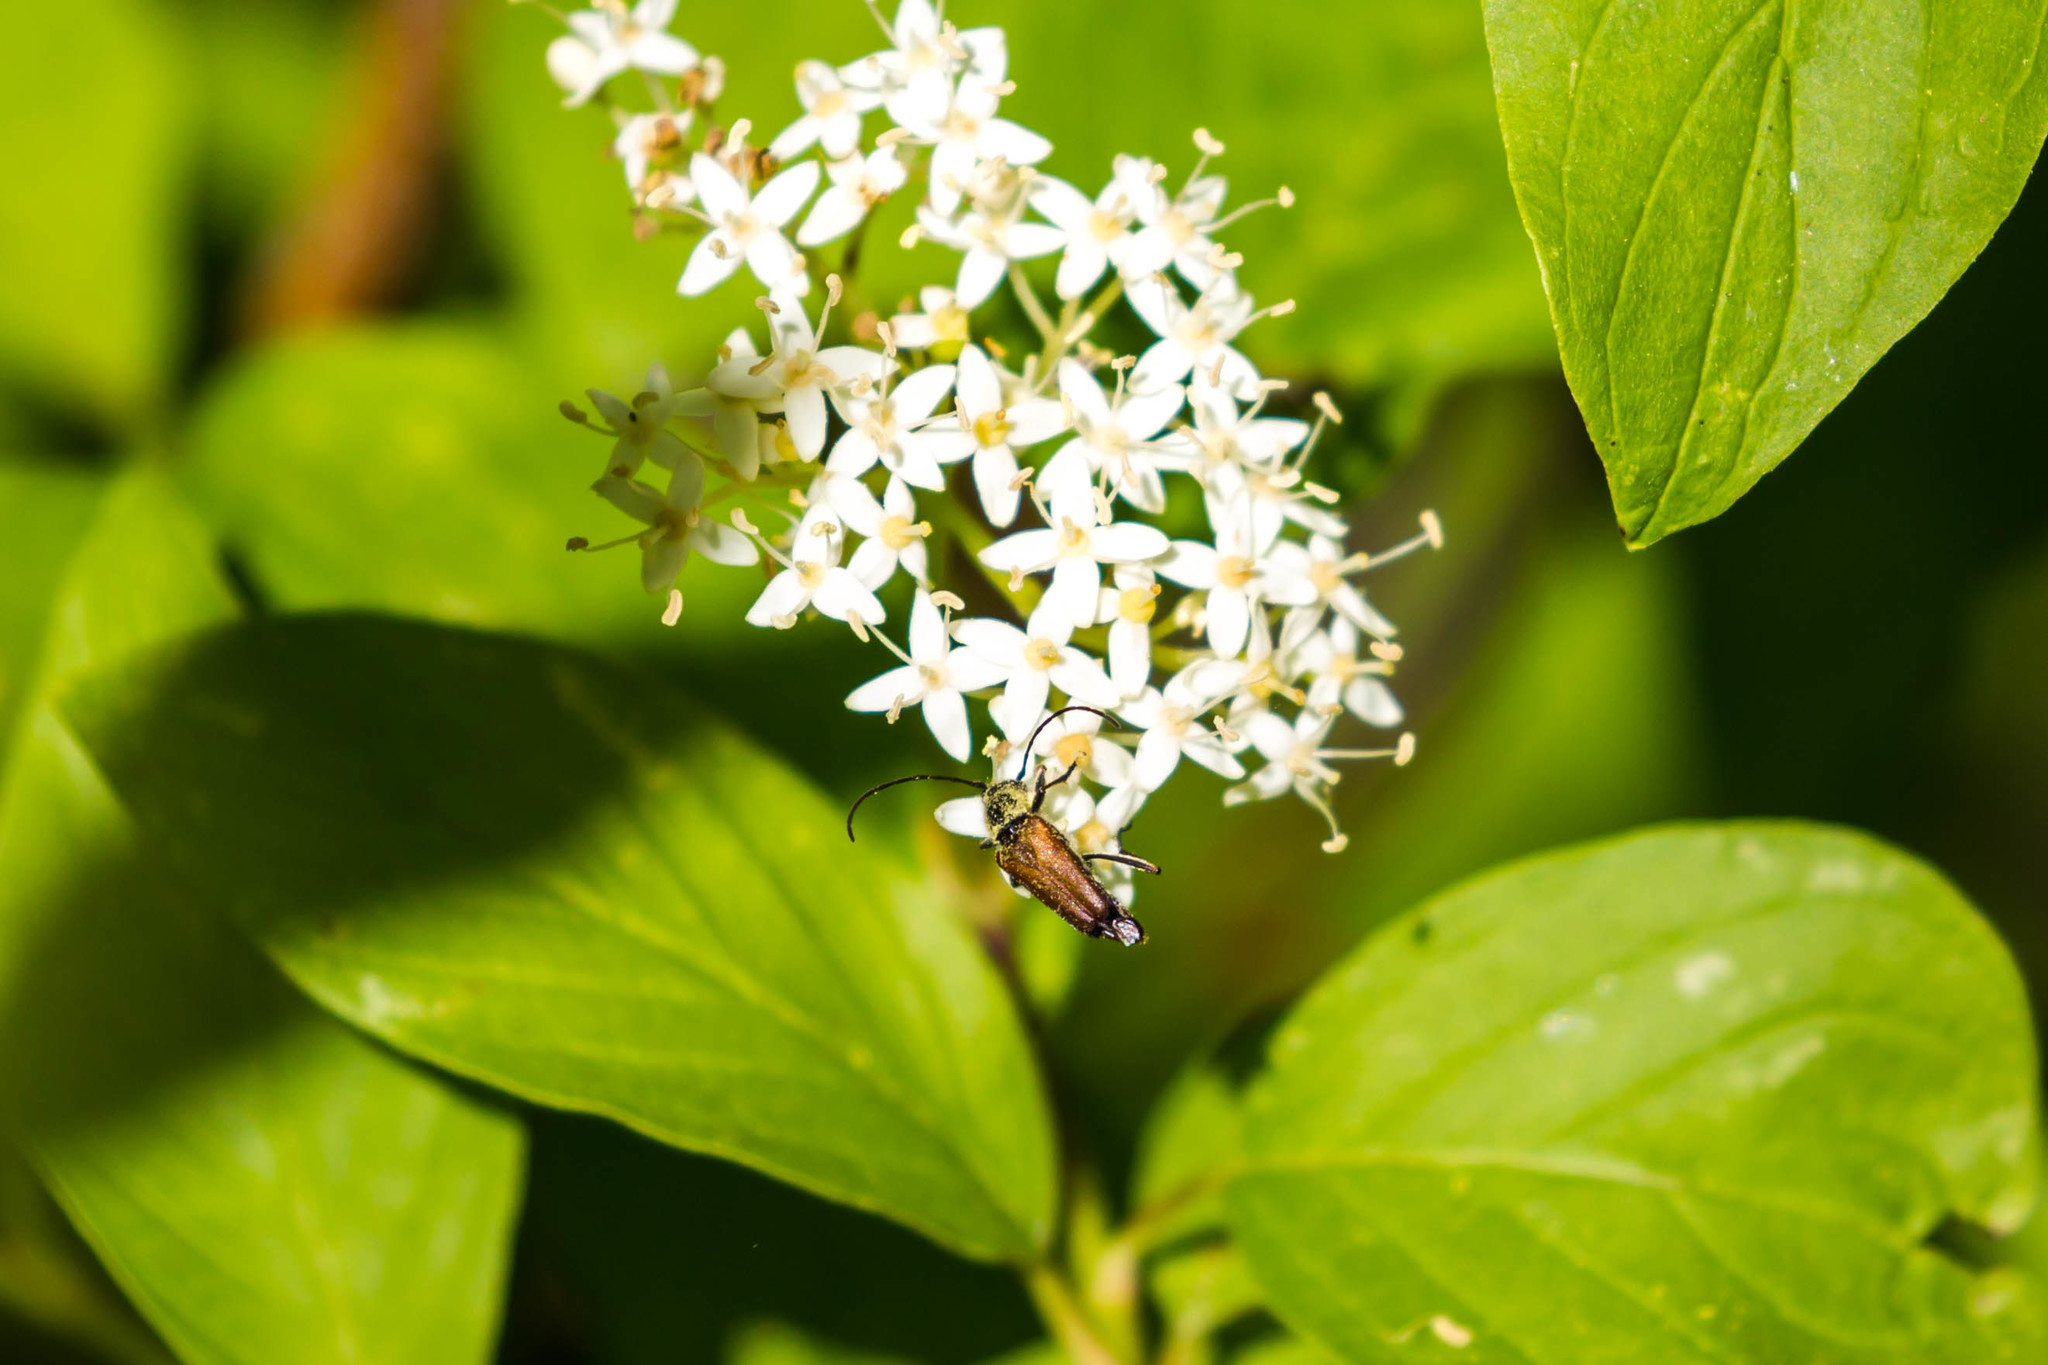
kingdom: Animalia
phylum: Arthropoda
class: Insecta
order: Coleoptera
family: Cerambycidae
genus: Anastrangalia
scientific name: Anastrangalia sanguinea
